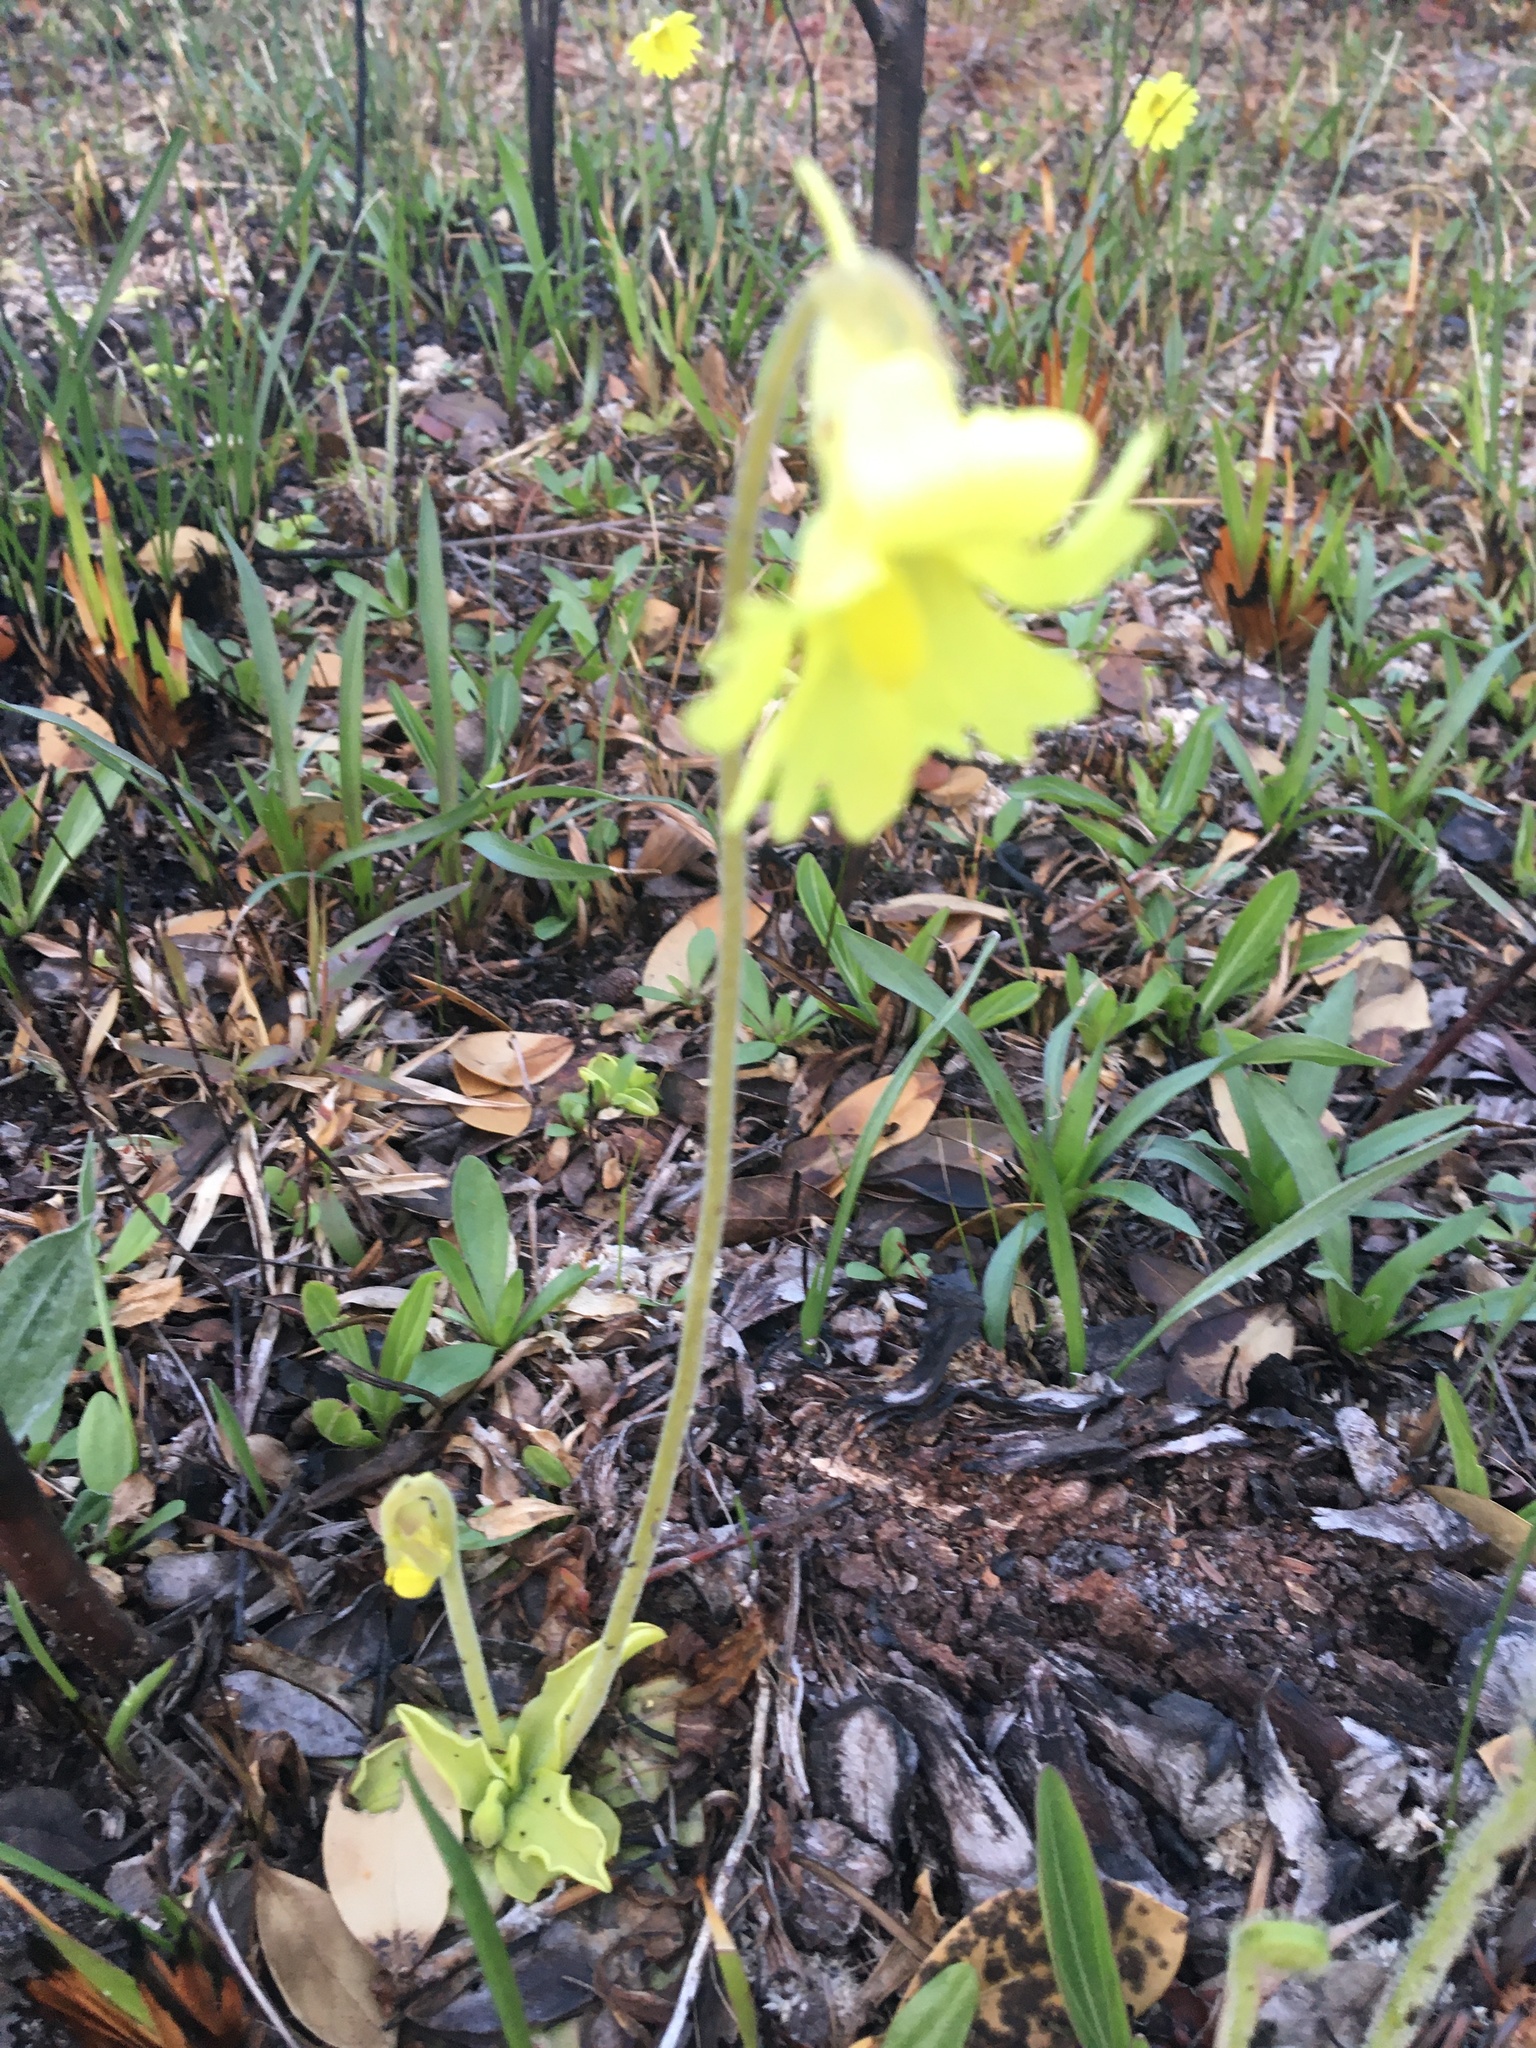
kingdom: Plantae
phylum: Tracheophyta
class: Magnoliopsida
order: Lamiales
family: Lentibulariaceae
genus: Pinguicula
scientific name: Pinguicula lutea
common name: Yellow butterwort
